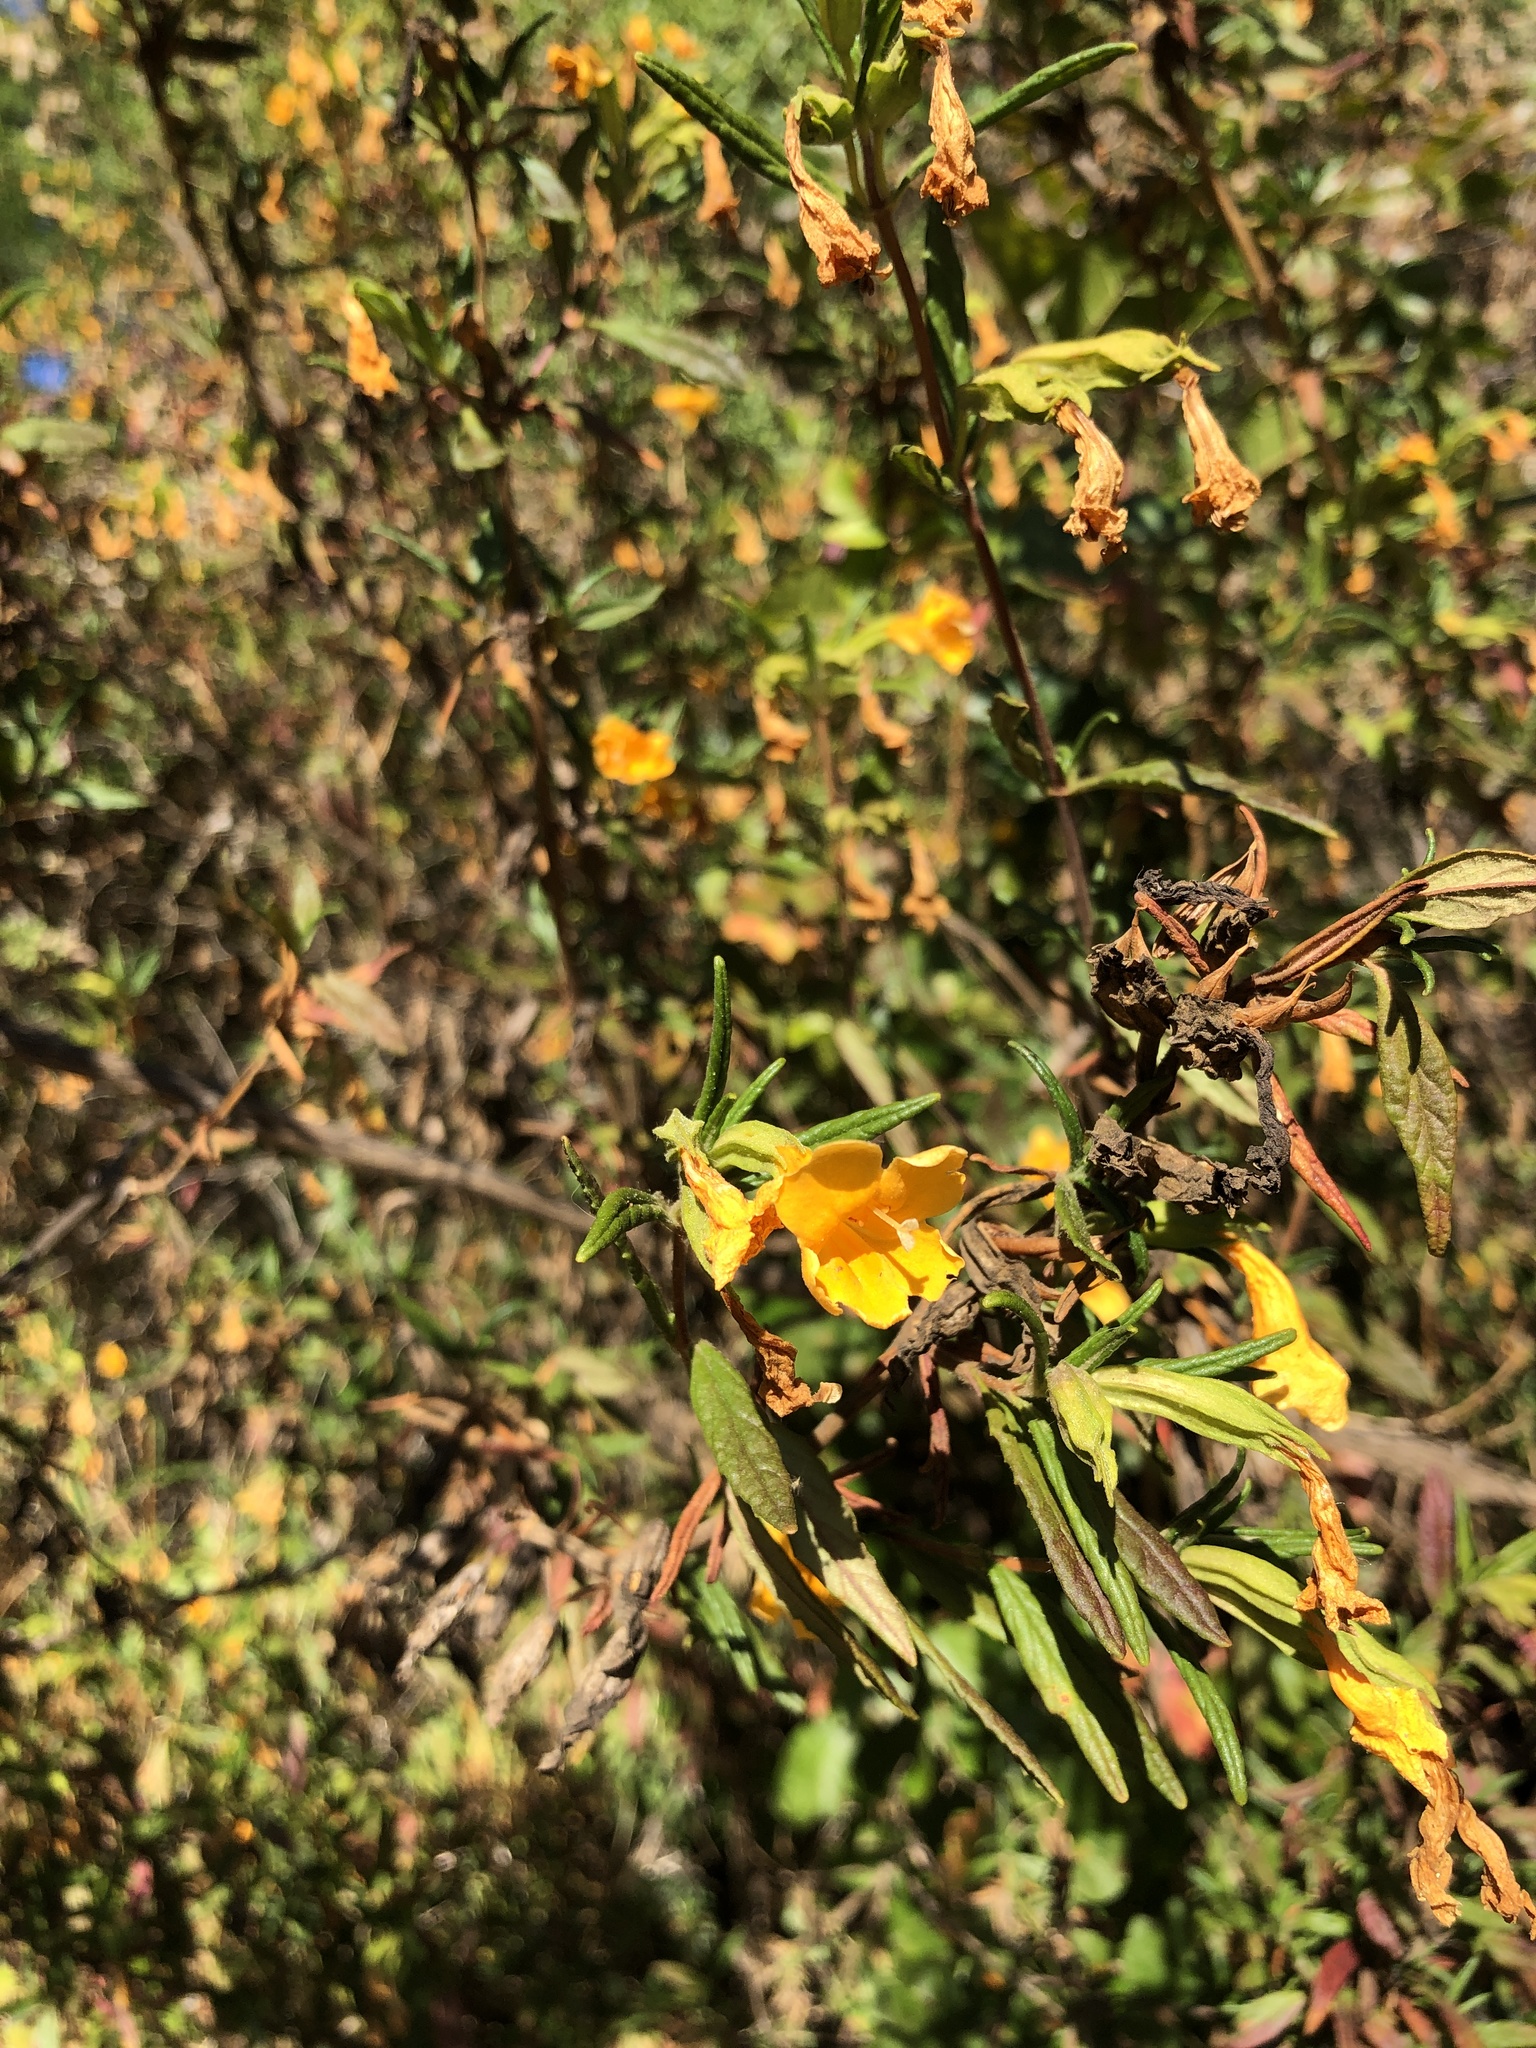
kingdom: Plantae
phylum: Tracheophyta
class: Magnoliopsida
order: Lamiales
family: Phrymaceae
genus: Diplacus
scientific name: Diplacus aurantiacus
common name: Bush monkey-flower
